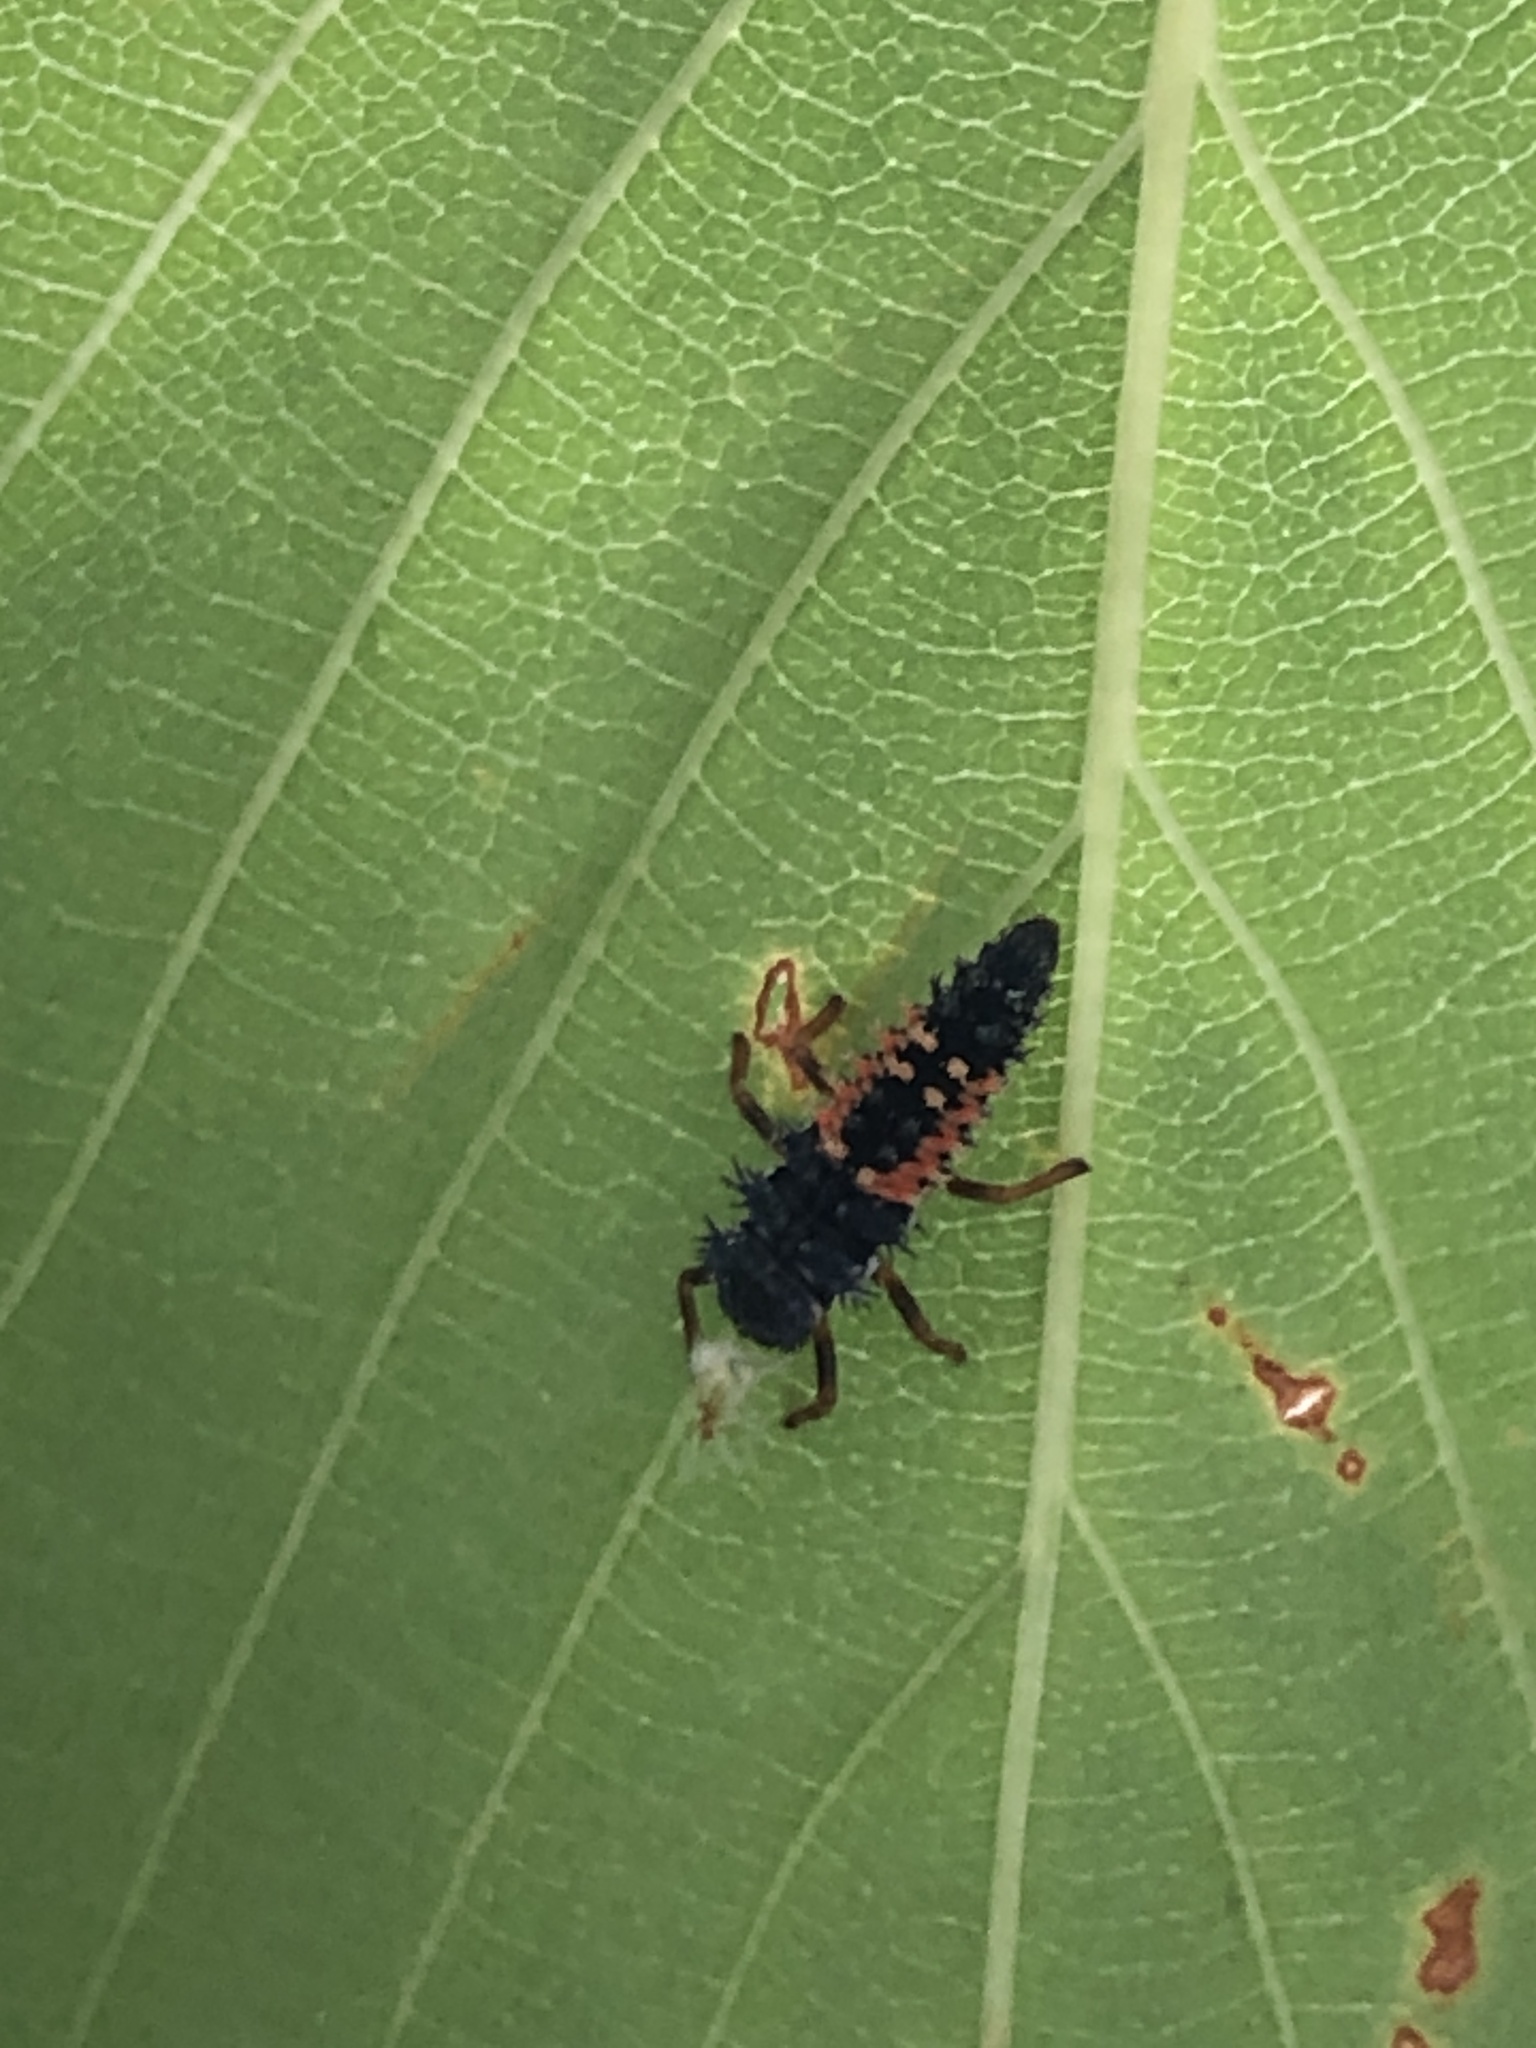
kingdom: Animalia
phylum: Arthropoda
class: Insecta
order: Coleoptera
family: Coccinellidae
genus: Harmonia
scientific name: Harmonia axyridis
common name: Harlequin ladybird
